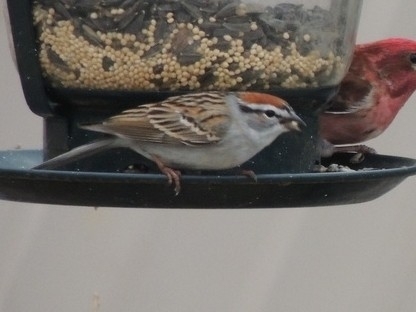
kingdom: Animalia
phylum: Chordata
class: Aves
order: Passeriformes
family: Passerellidae
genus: Spizella
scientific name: Spizella passerina
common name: Chipping sparrow
